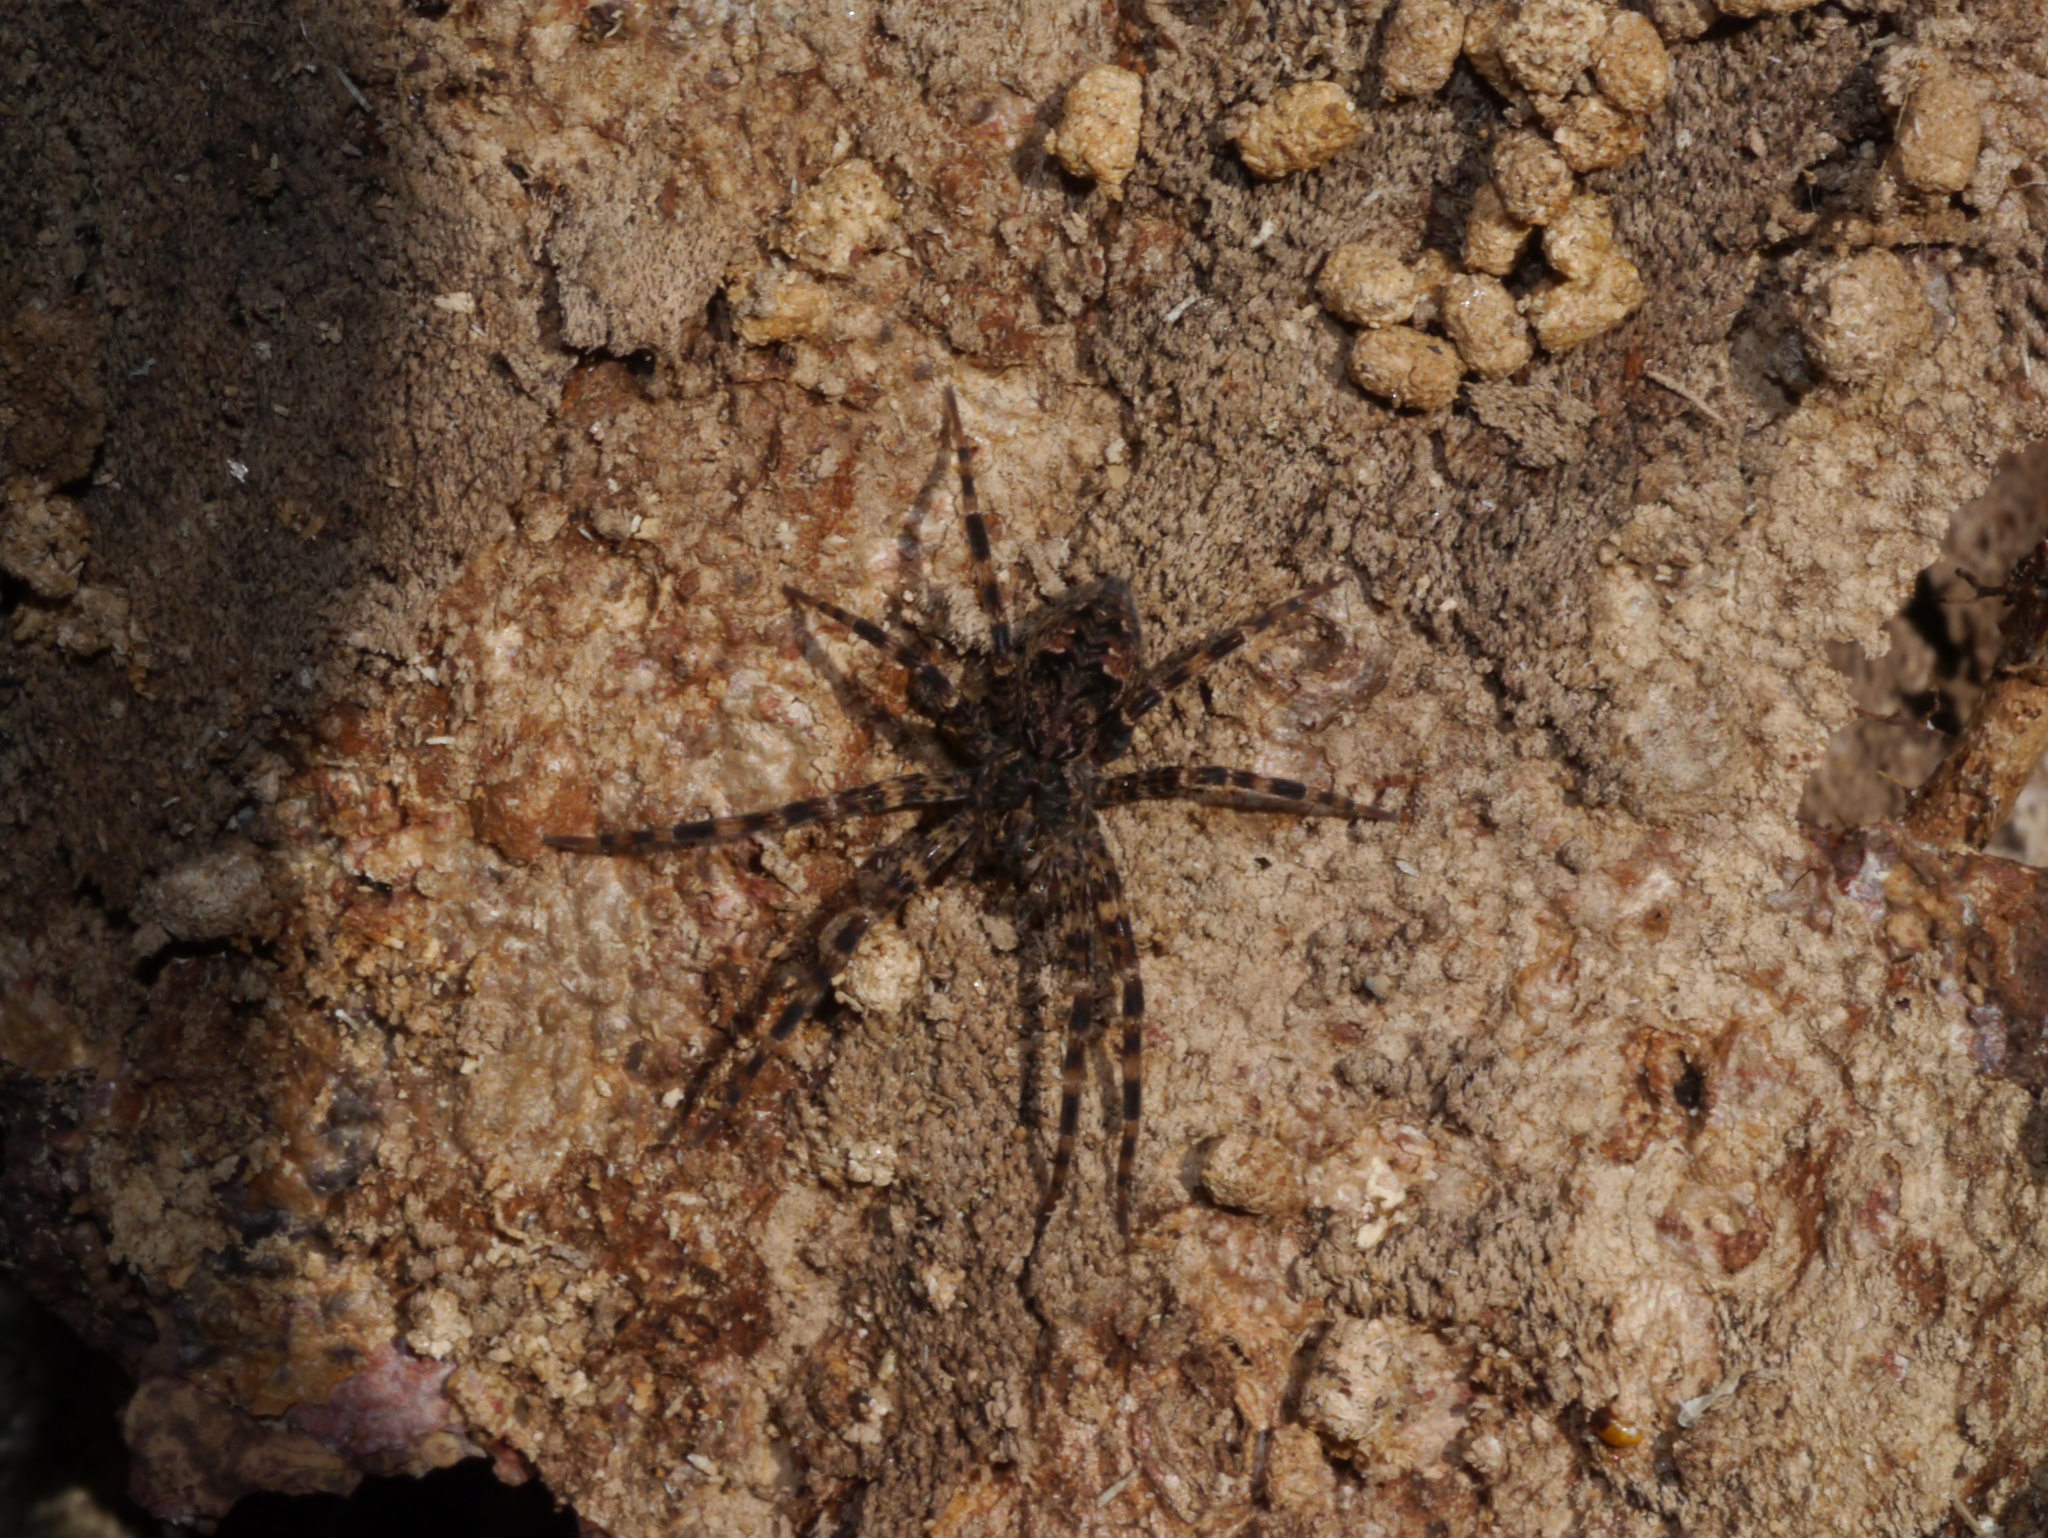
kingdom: Animalia
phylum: Arthropoda
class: Arachnida
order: Araneae
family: Pisauridae
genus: Dolomedes
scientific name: Dolomedes tenebrosus
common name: Dark fishing spider
